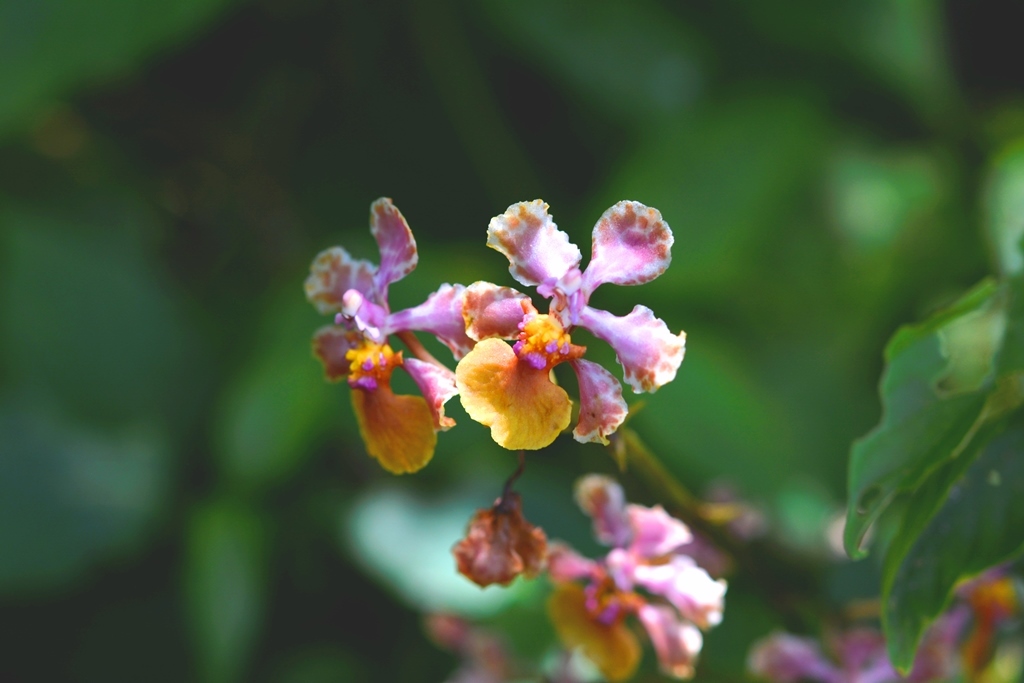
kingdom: Plantae
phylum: Tracheophyta
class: Liliopsida
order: Asparagales
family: Orchidaceae
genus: Trichocentrum
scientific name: Trichocentrum andreanum
